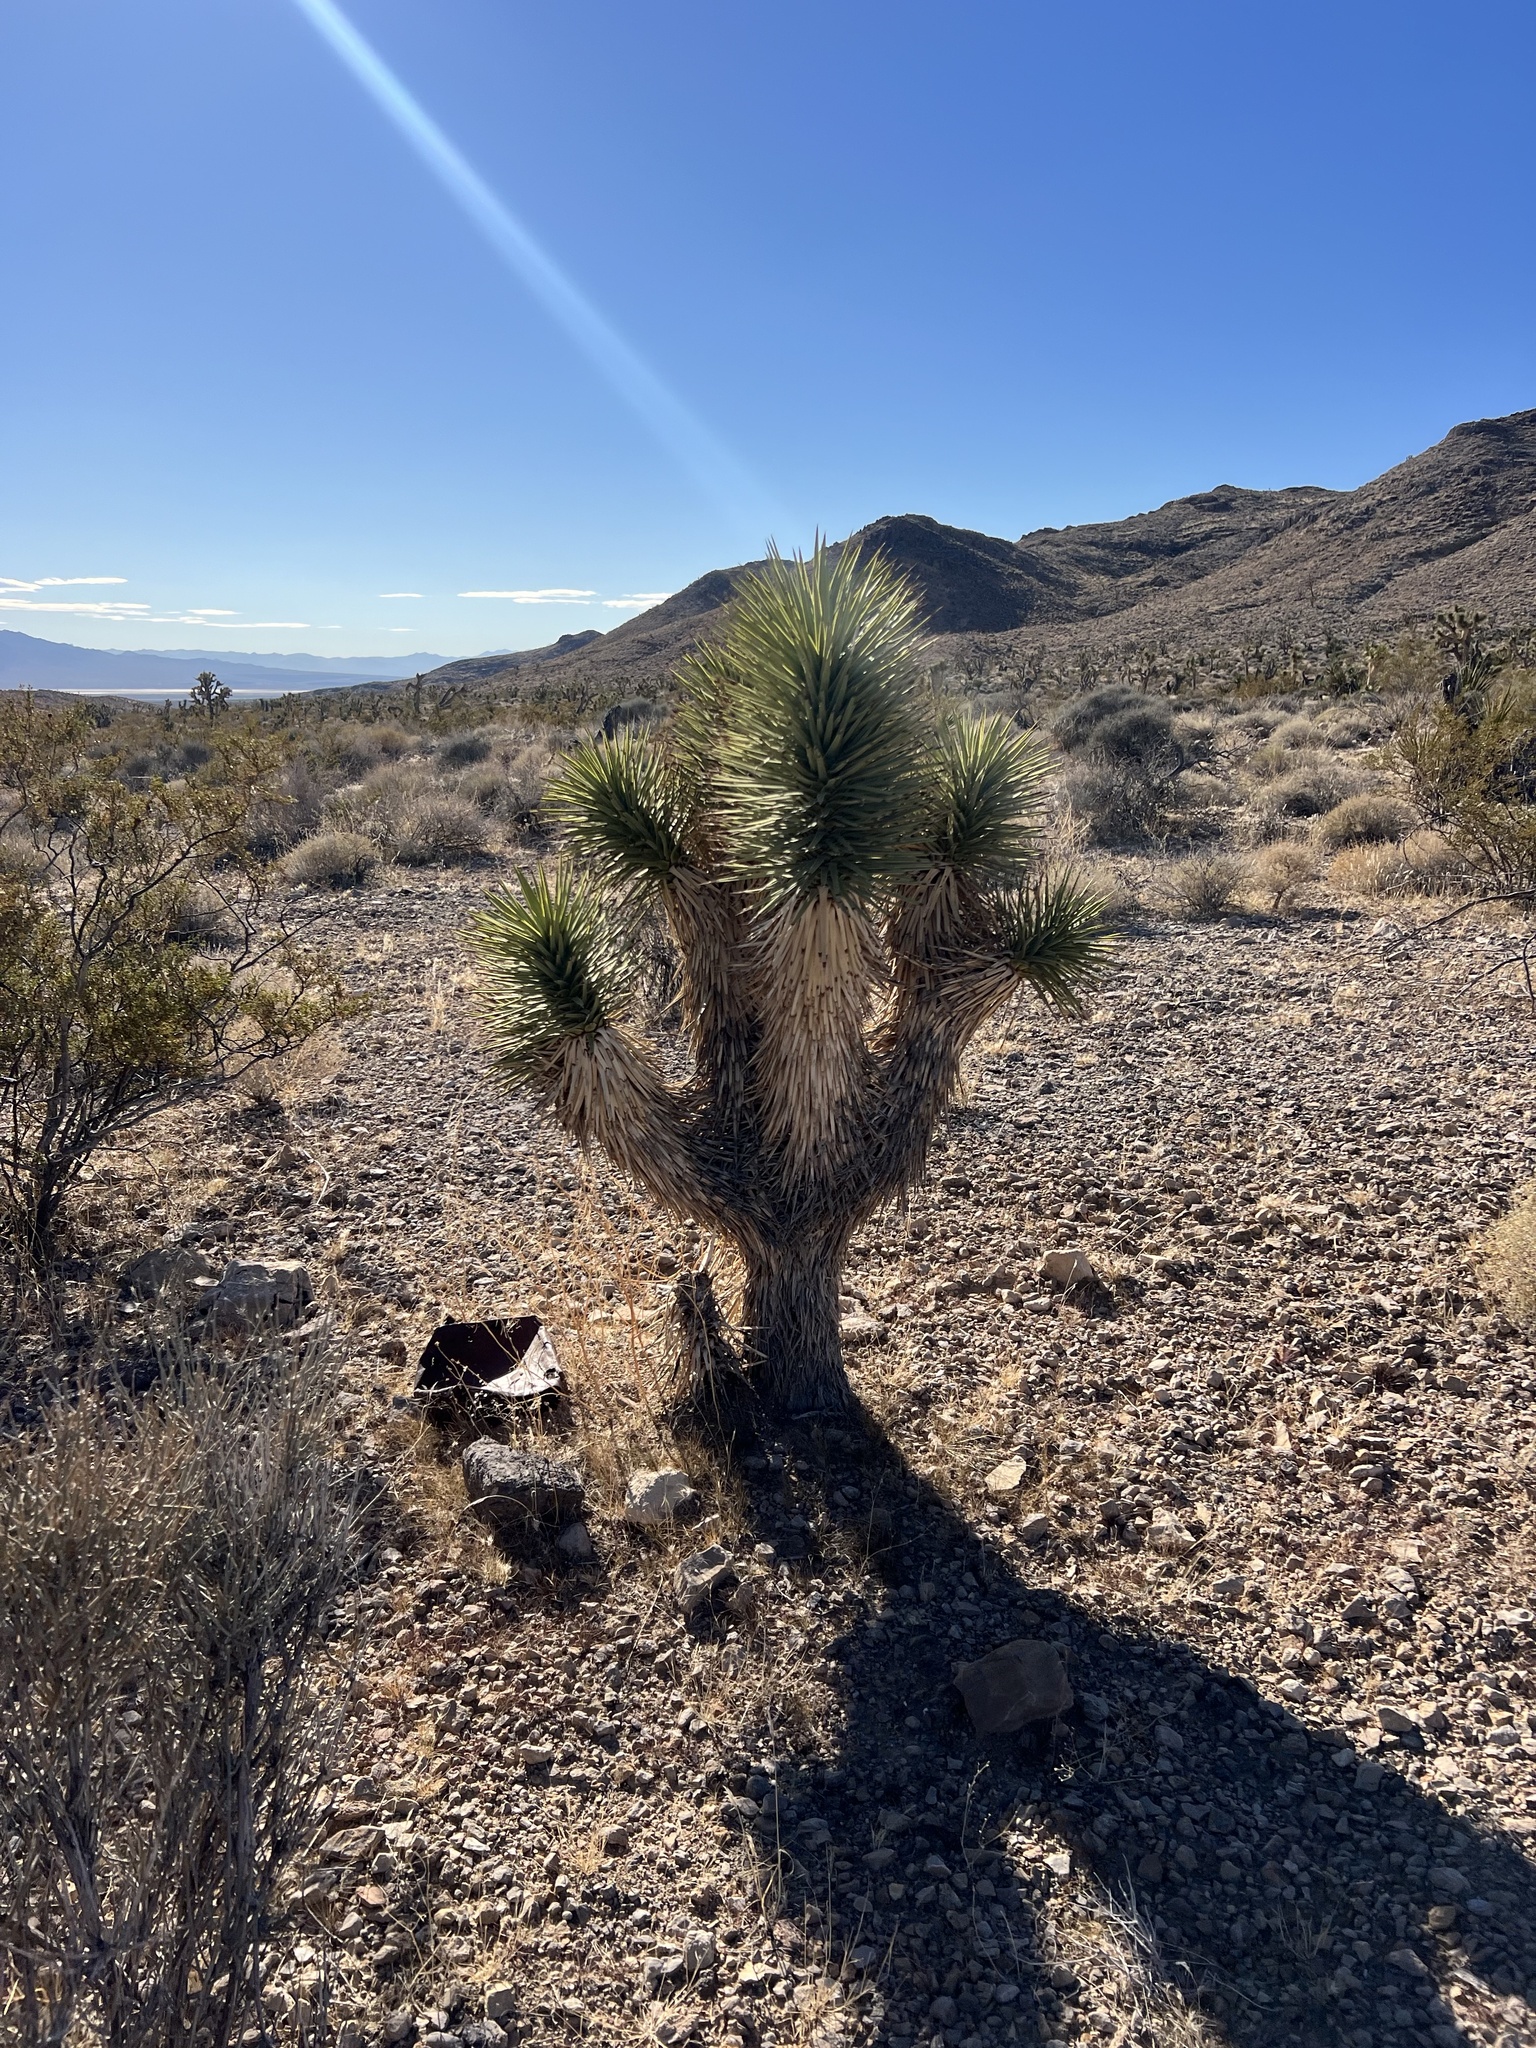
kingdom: Plantae
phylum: Tracheophyta
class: Liliopsida
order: Asparagales
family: Asparagaceae
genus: Yucca
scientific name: Yucca brevifolia
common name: Joshua tree
